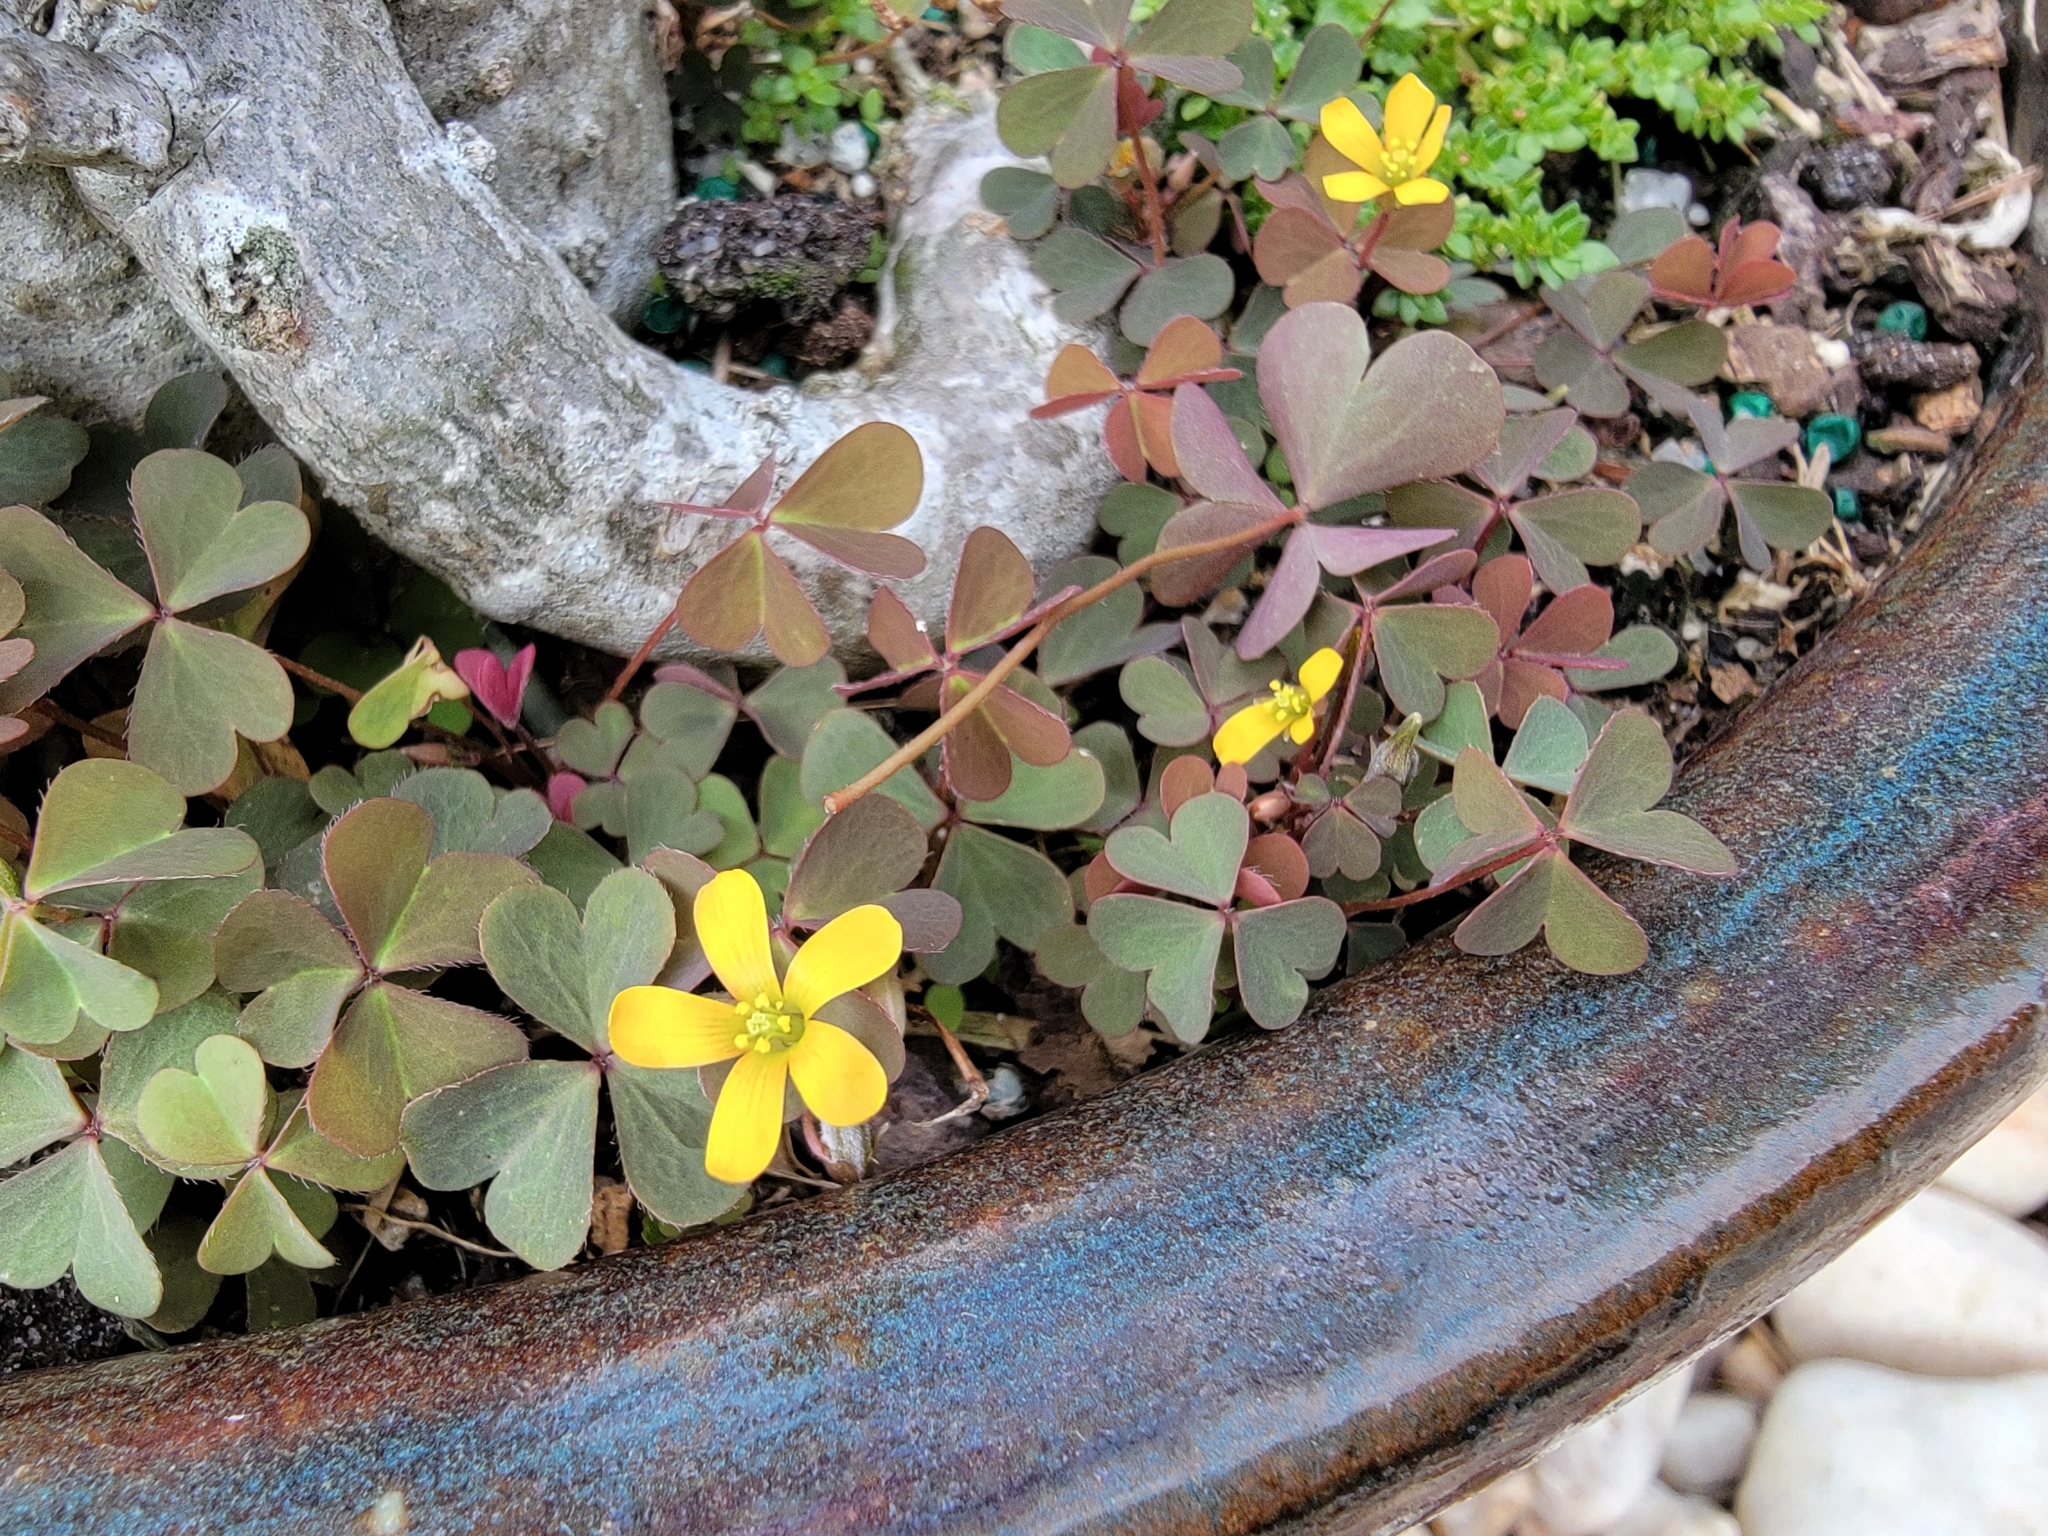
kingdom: Plantae
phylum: Tracheophyta
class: Magnoliopsida
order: Oxalidales
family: Oxalidaceae
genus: Oxalis
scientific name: Oxalis corniculata
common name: Procumbent yellow-sorrel
